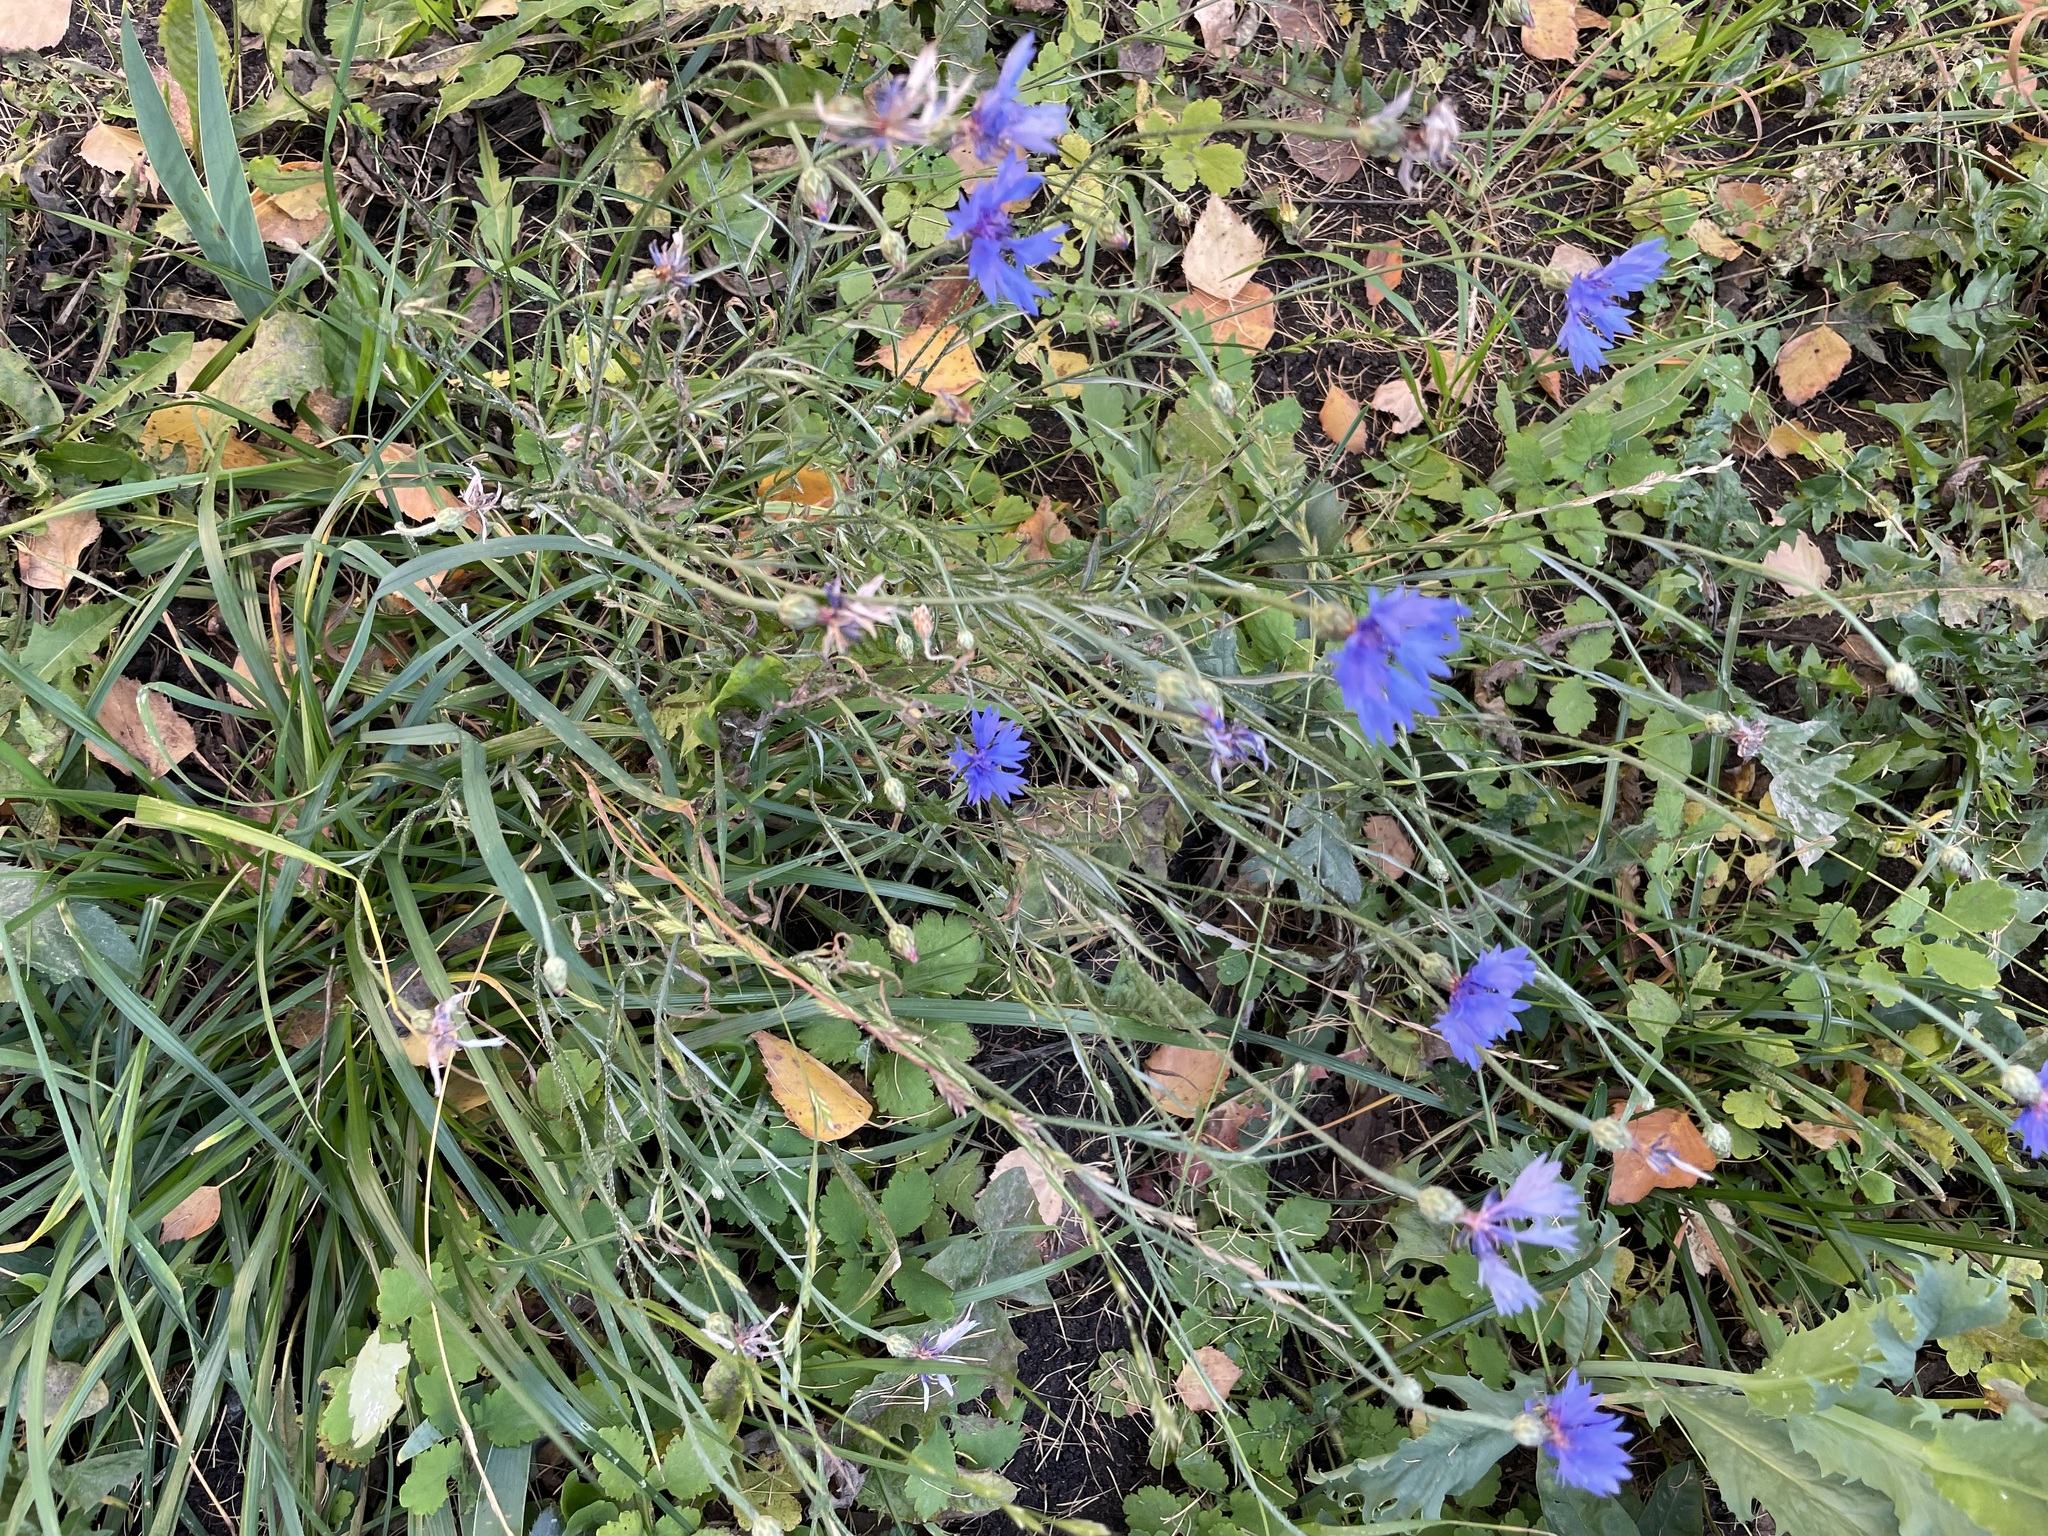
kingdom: Plantae
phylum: Tracheophyta
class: Magnoliopsida
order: Asterales
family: Asteraceae
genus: Centaurea
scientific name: Centaurea cyanus
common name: Cornflower
